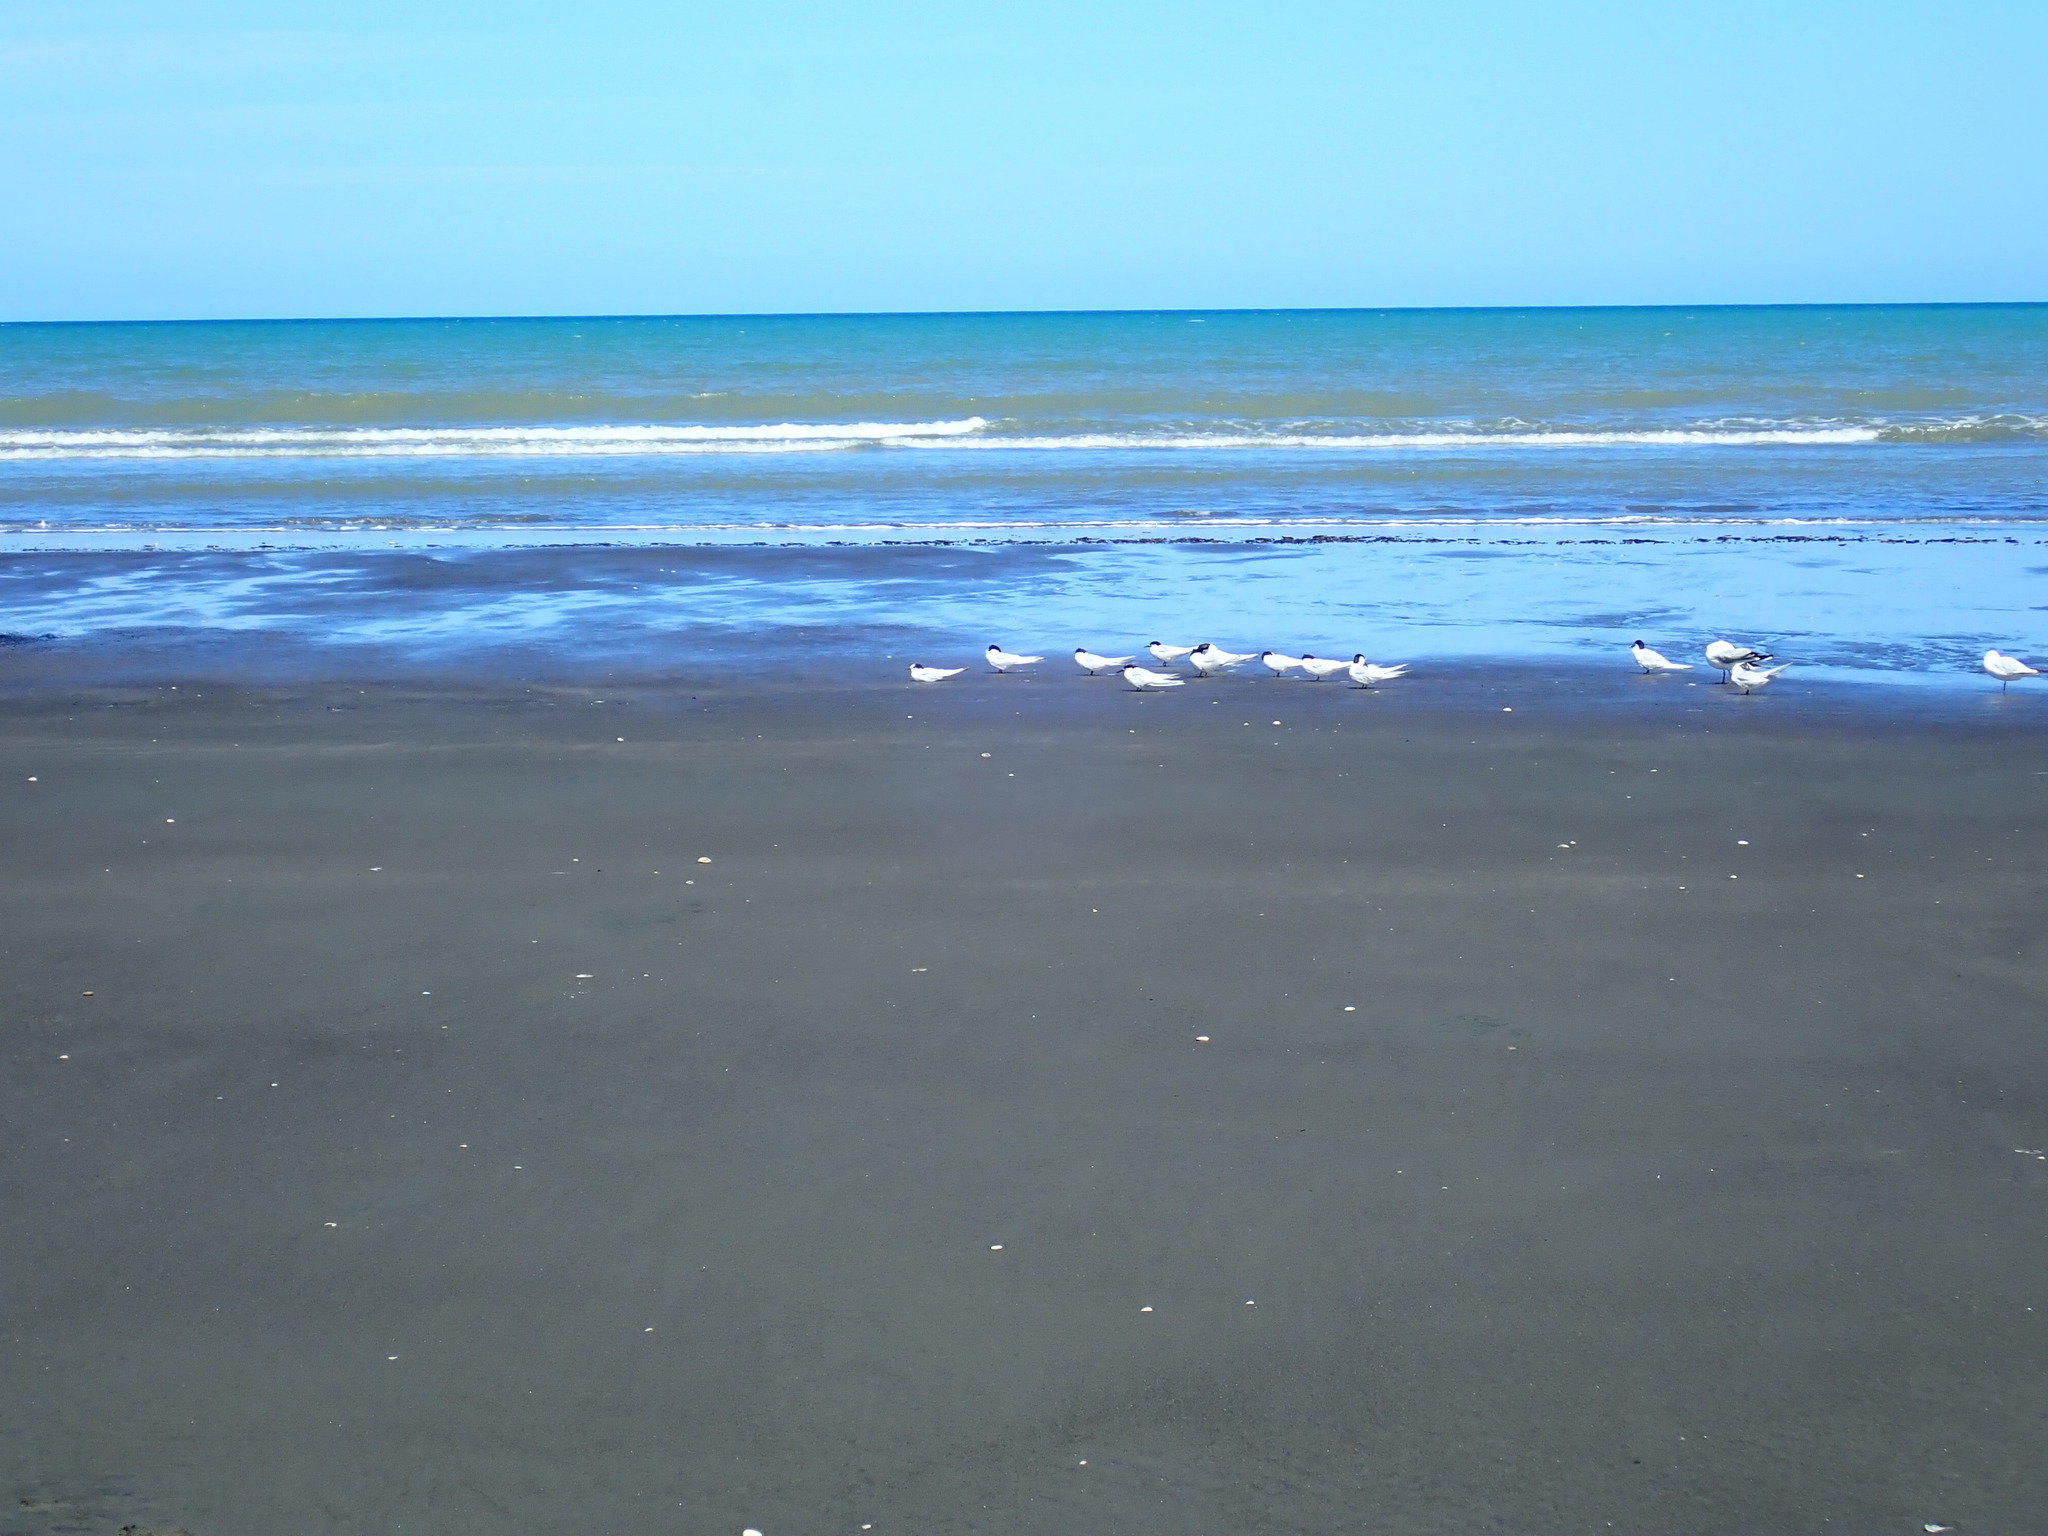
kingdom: Animalia
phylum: Chordata
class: Aves
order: Charadriiformes
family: Laridae
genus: Sterna
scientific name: Sterna striata
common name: White-fronted tern
